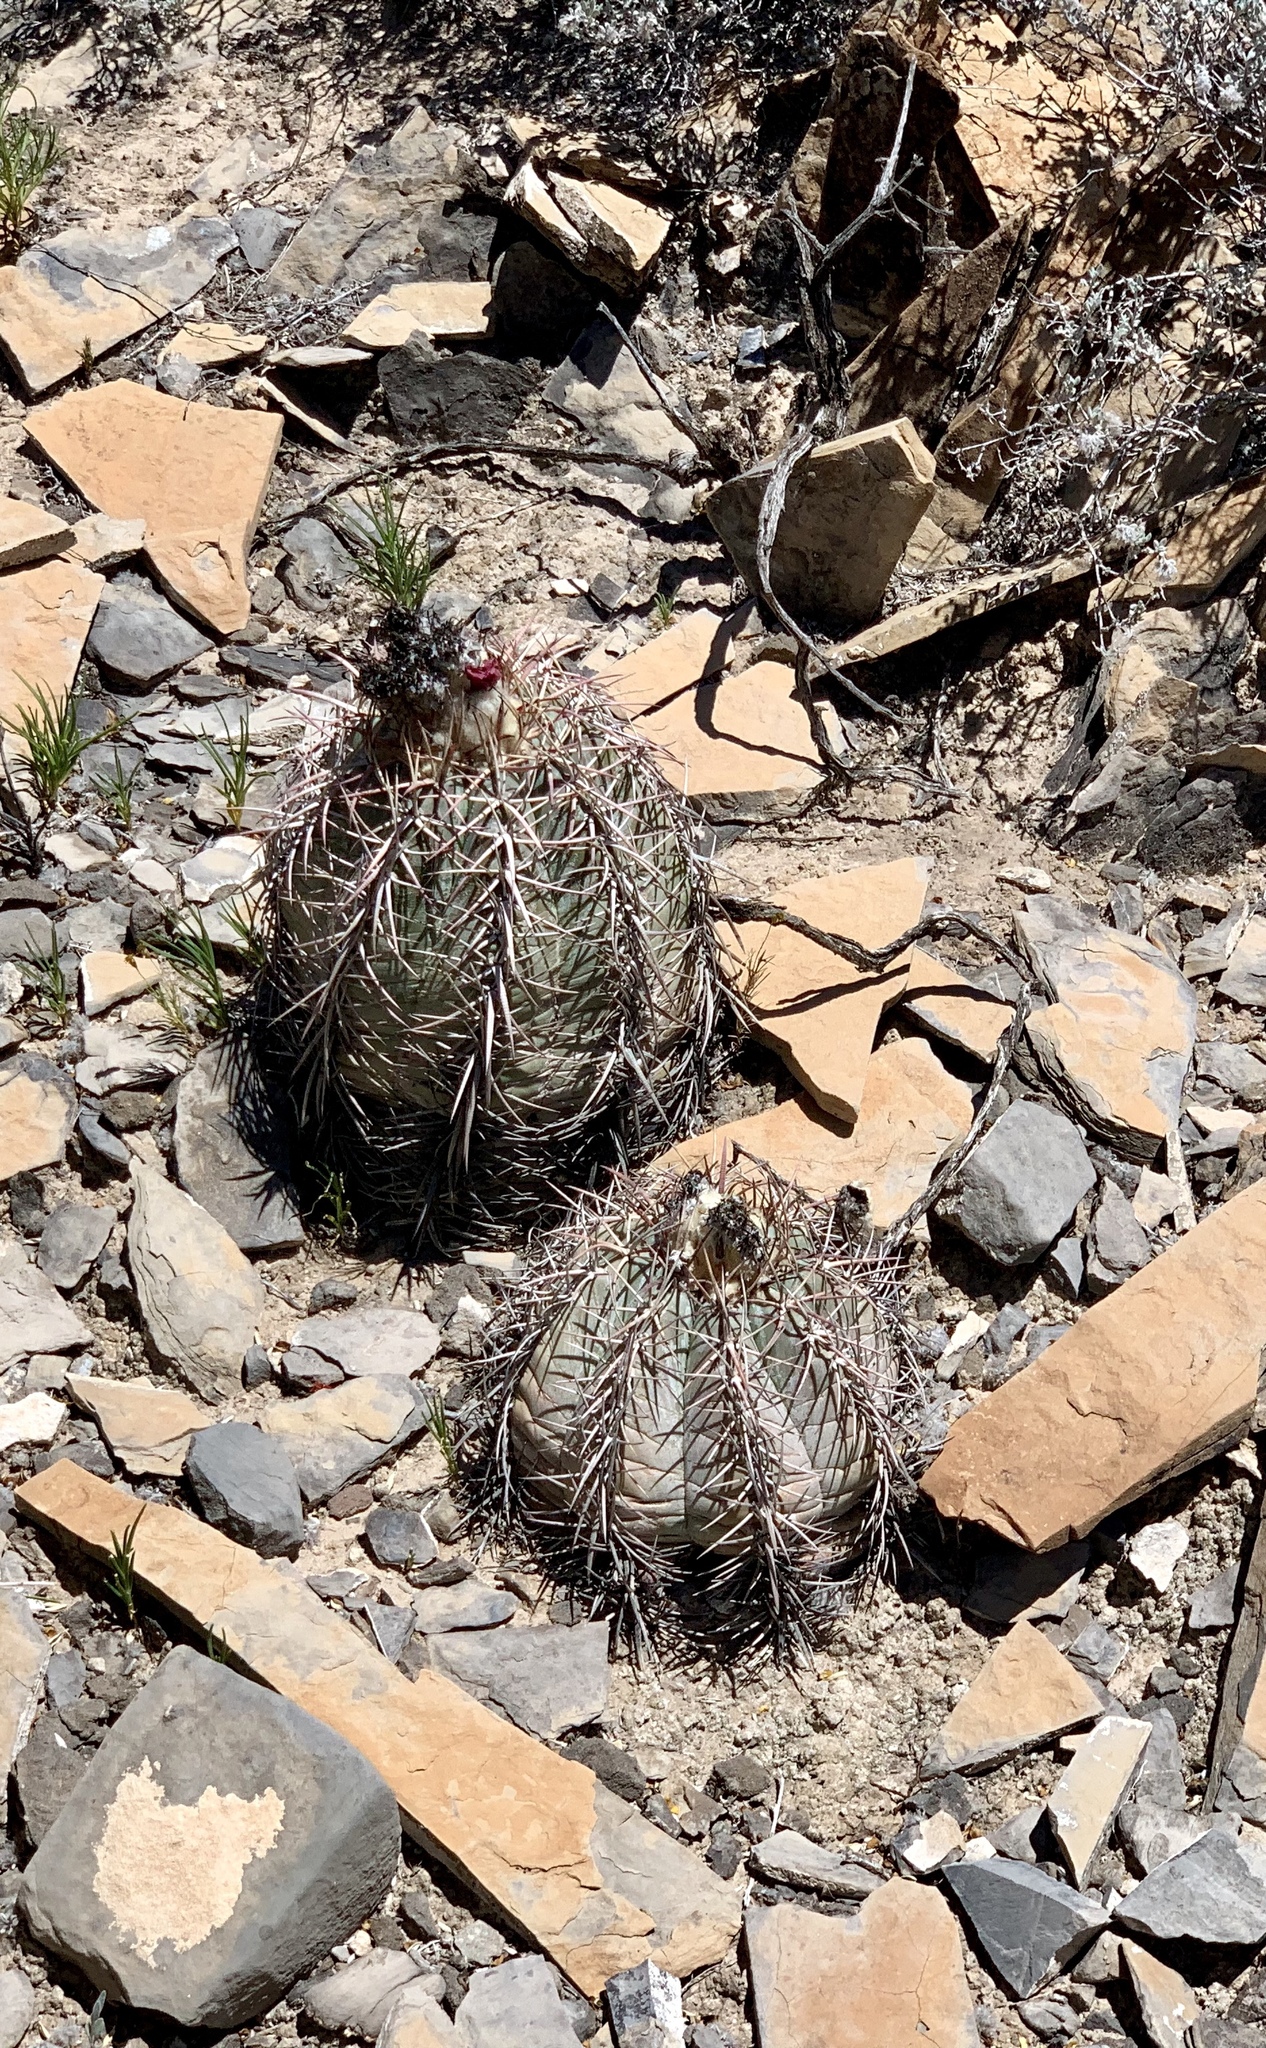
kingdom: Plantae
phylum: Tracheophyta
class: Magnoliopsida
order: Caryophyllales
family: Cactaceae
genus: Echinocactus
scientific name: Echinocactus horizonthalonius
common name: Devilshead
